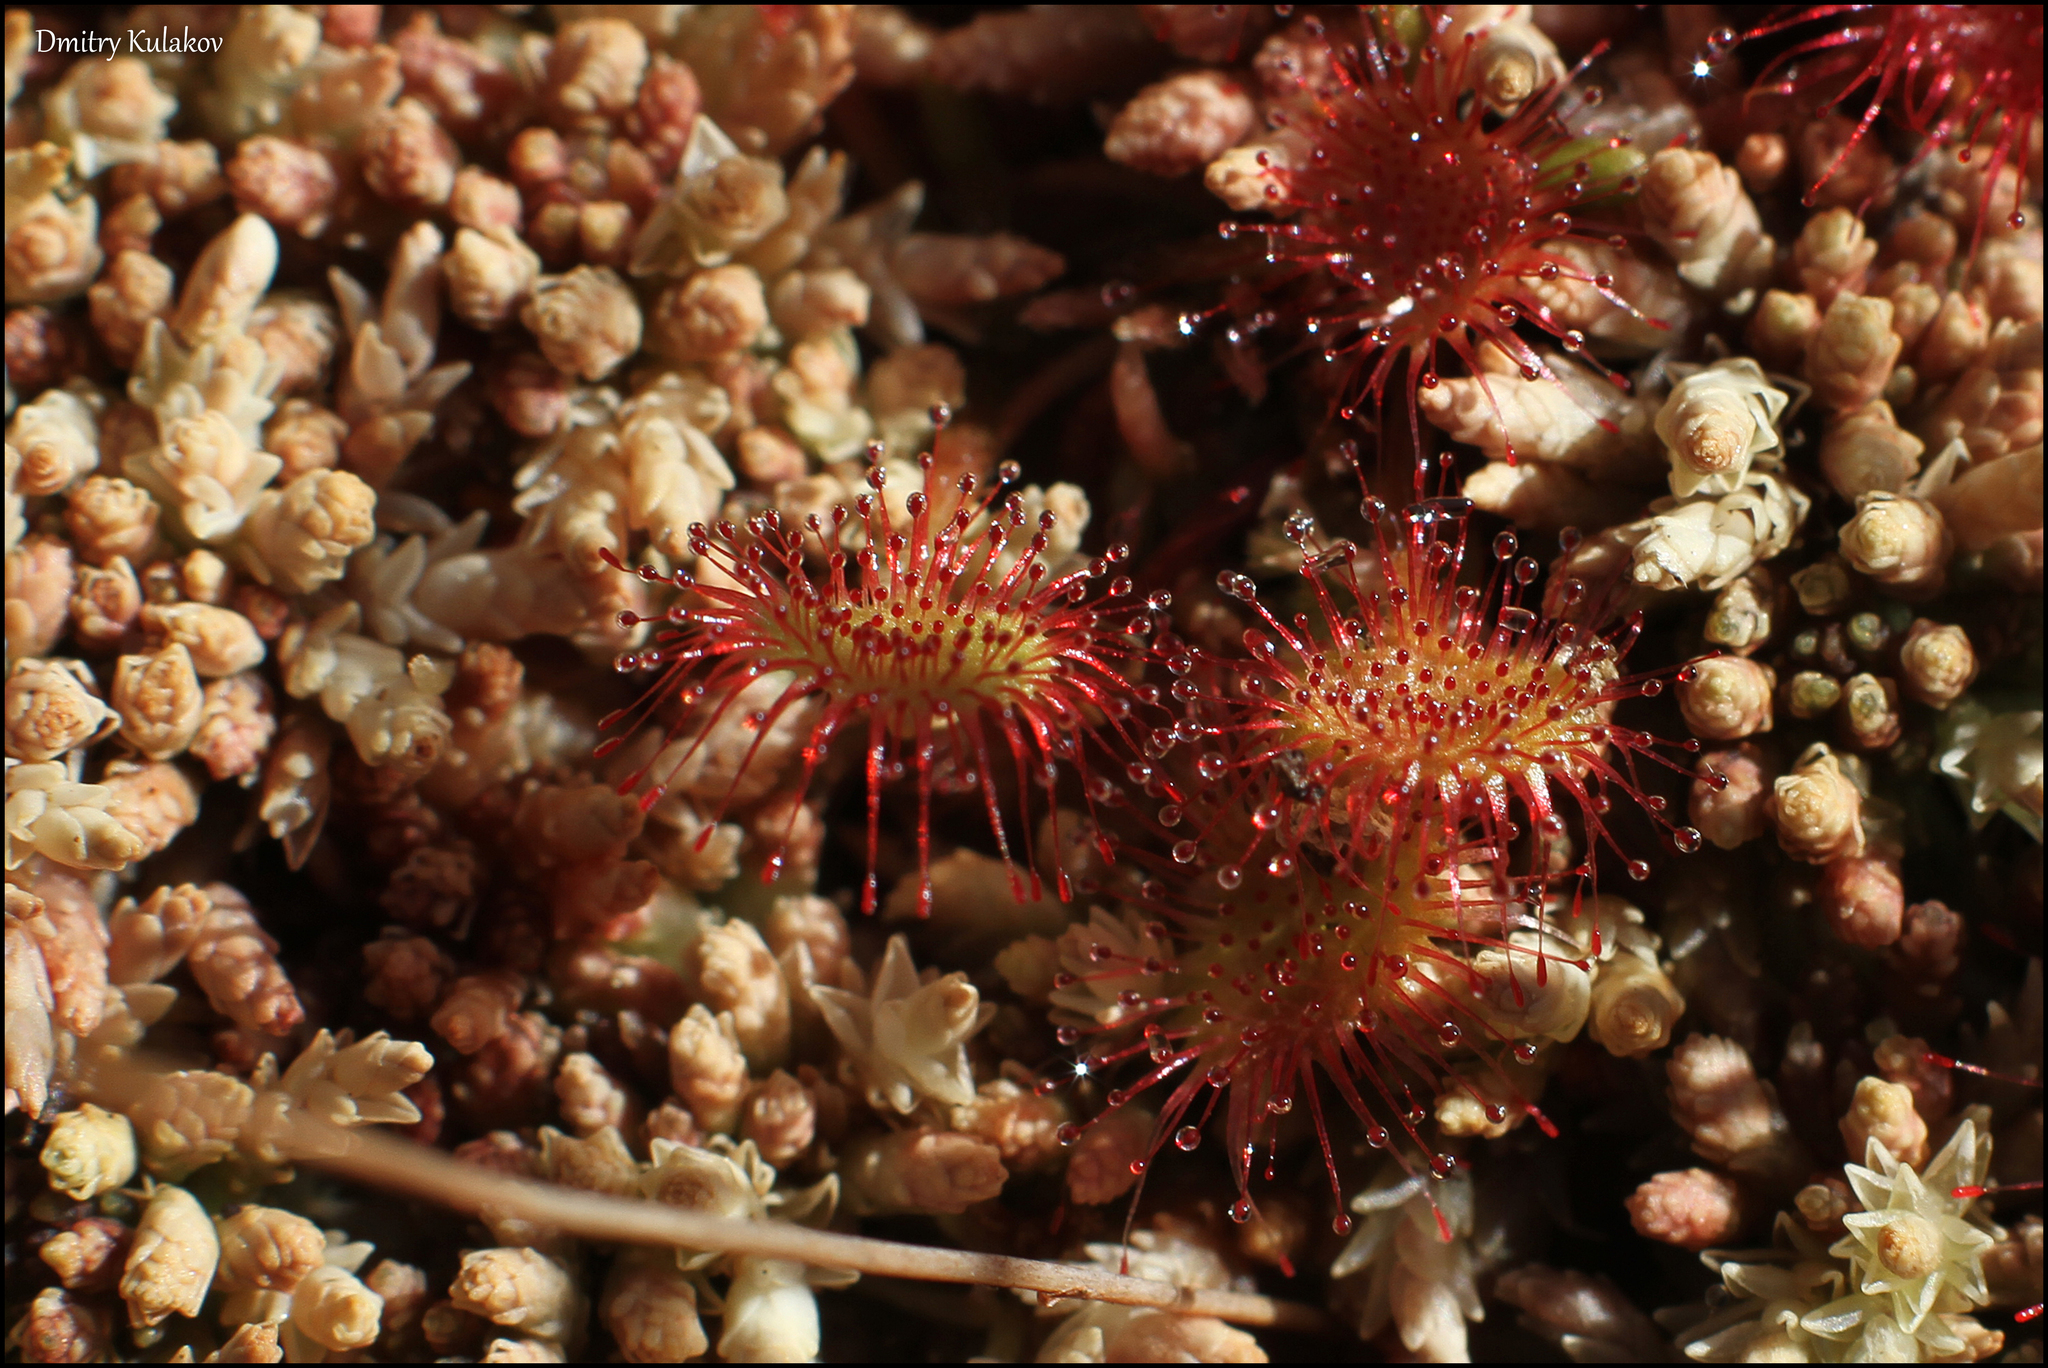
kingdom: Plantae
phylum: Tracheophyta
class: Magnoliopsida
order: Caryophyllales
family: Droseraceae
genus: Drosera
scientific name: Drosera rotundifolia
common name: Round-leaved sundew
